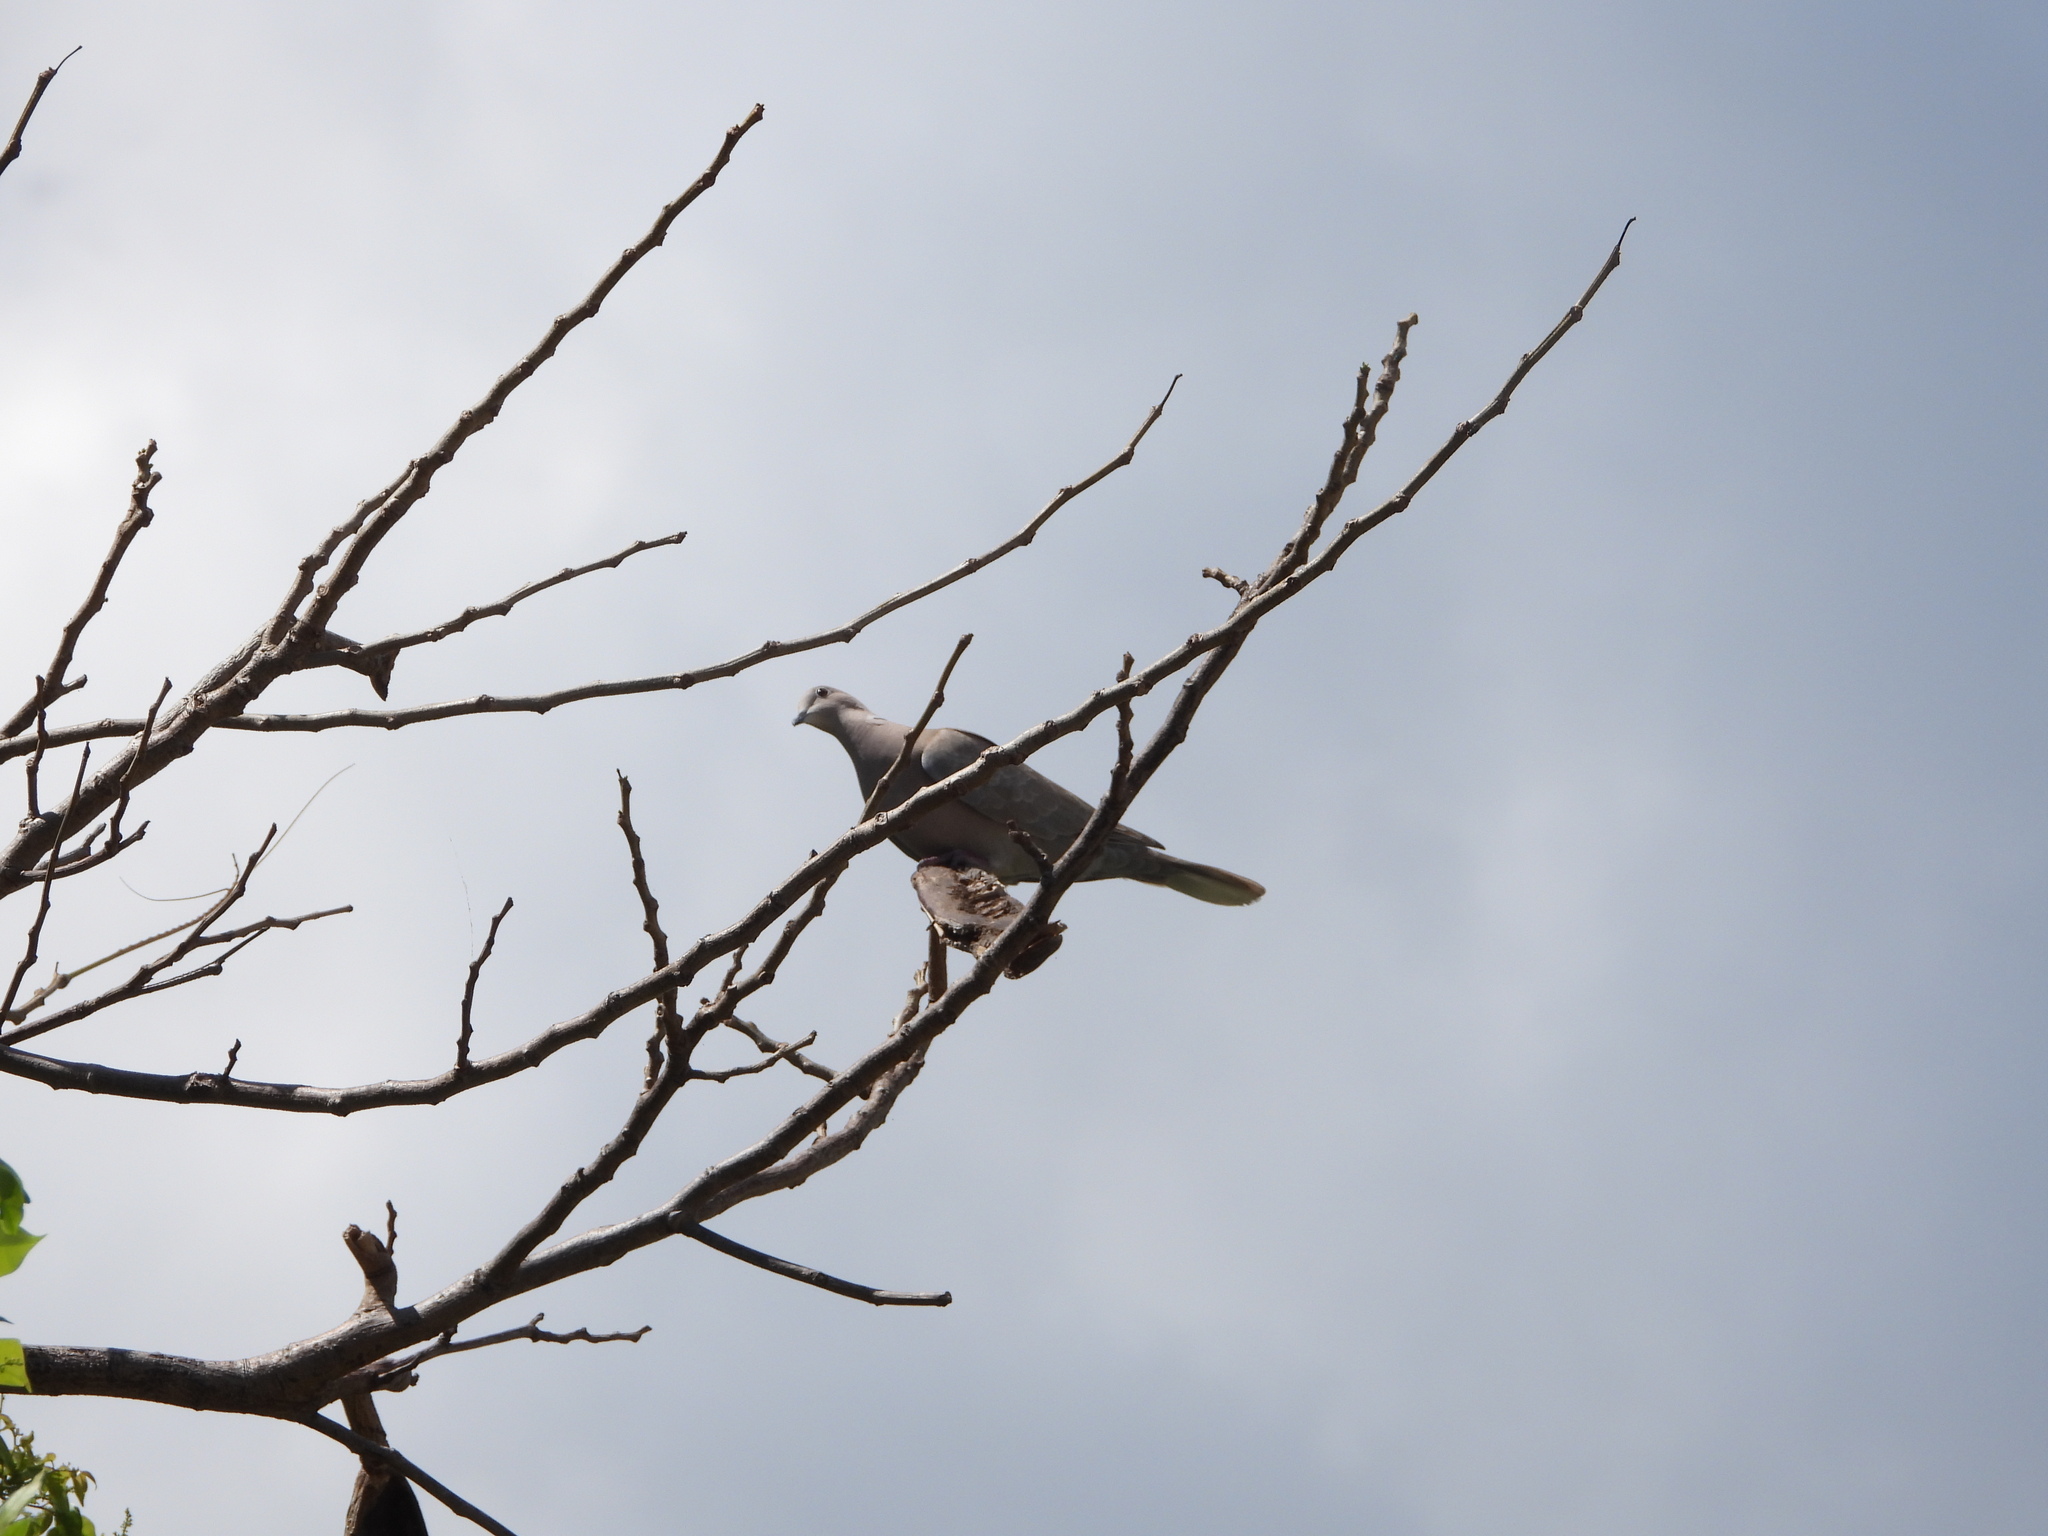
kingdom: Animalia
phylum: Chordata
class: Aves
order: Columbiformes
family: Columbidae
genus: Streptopelia
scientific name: Streptopelia decaocto
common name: Eurasian collared dove
